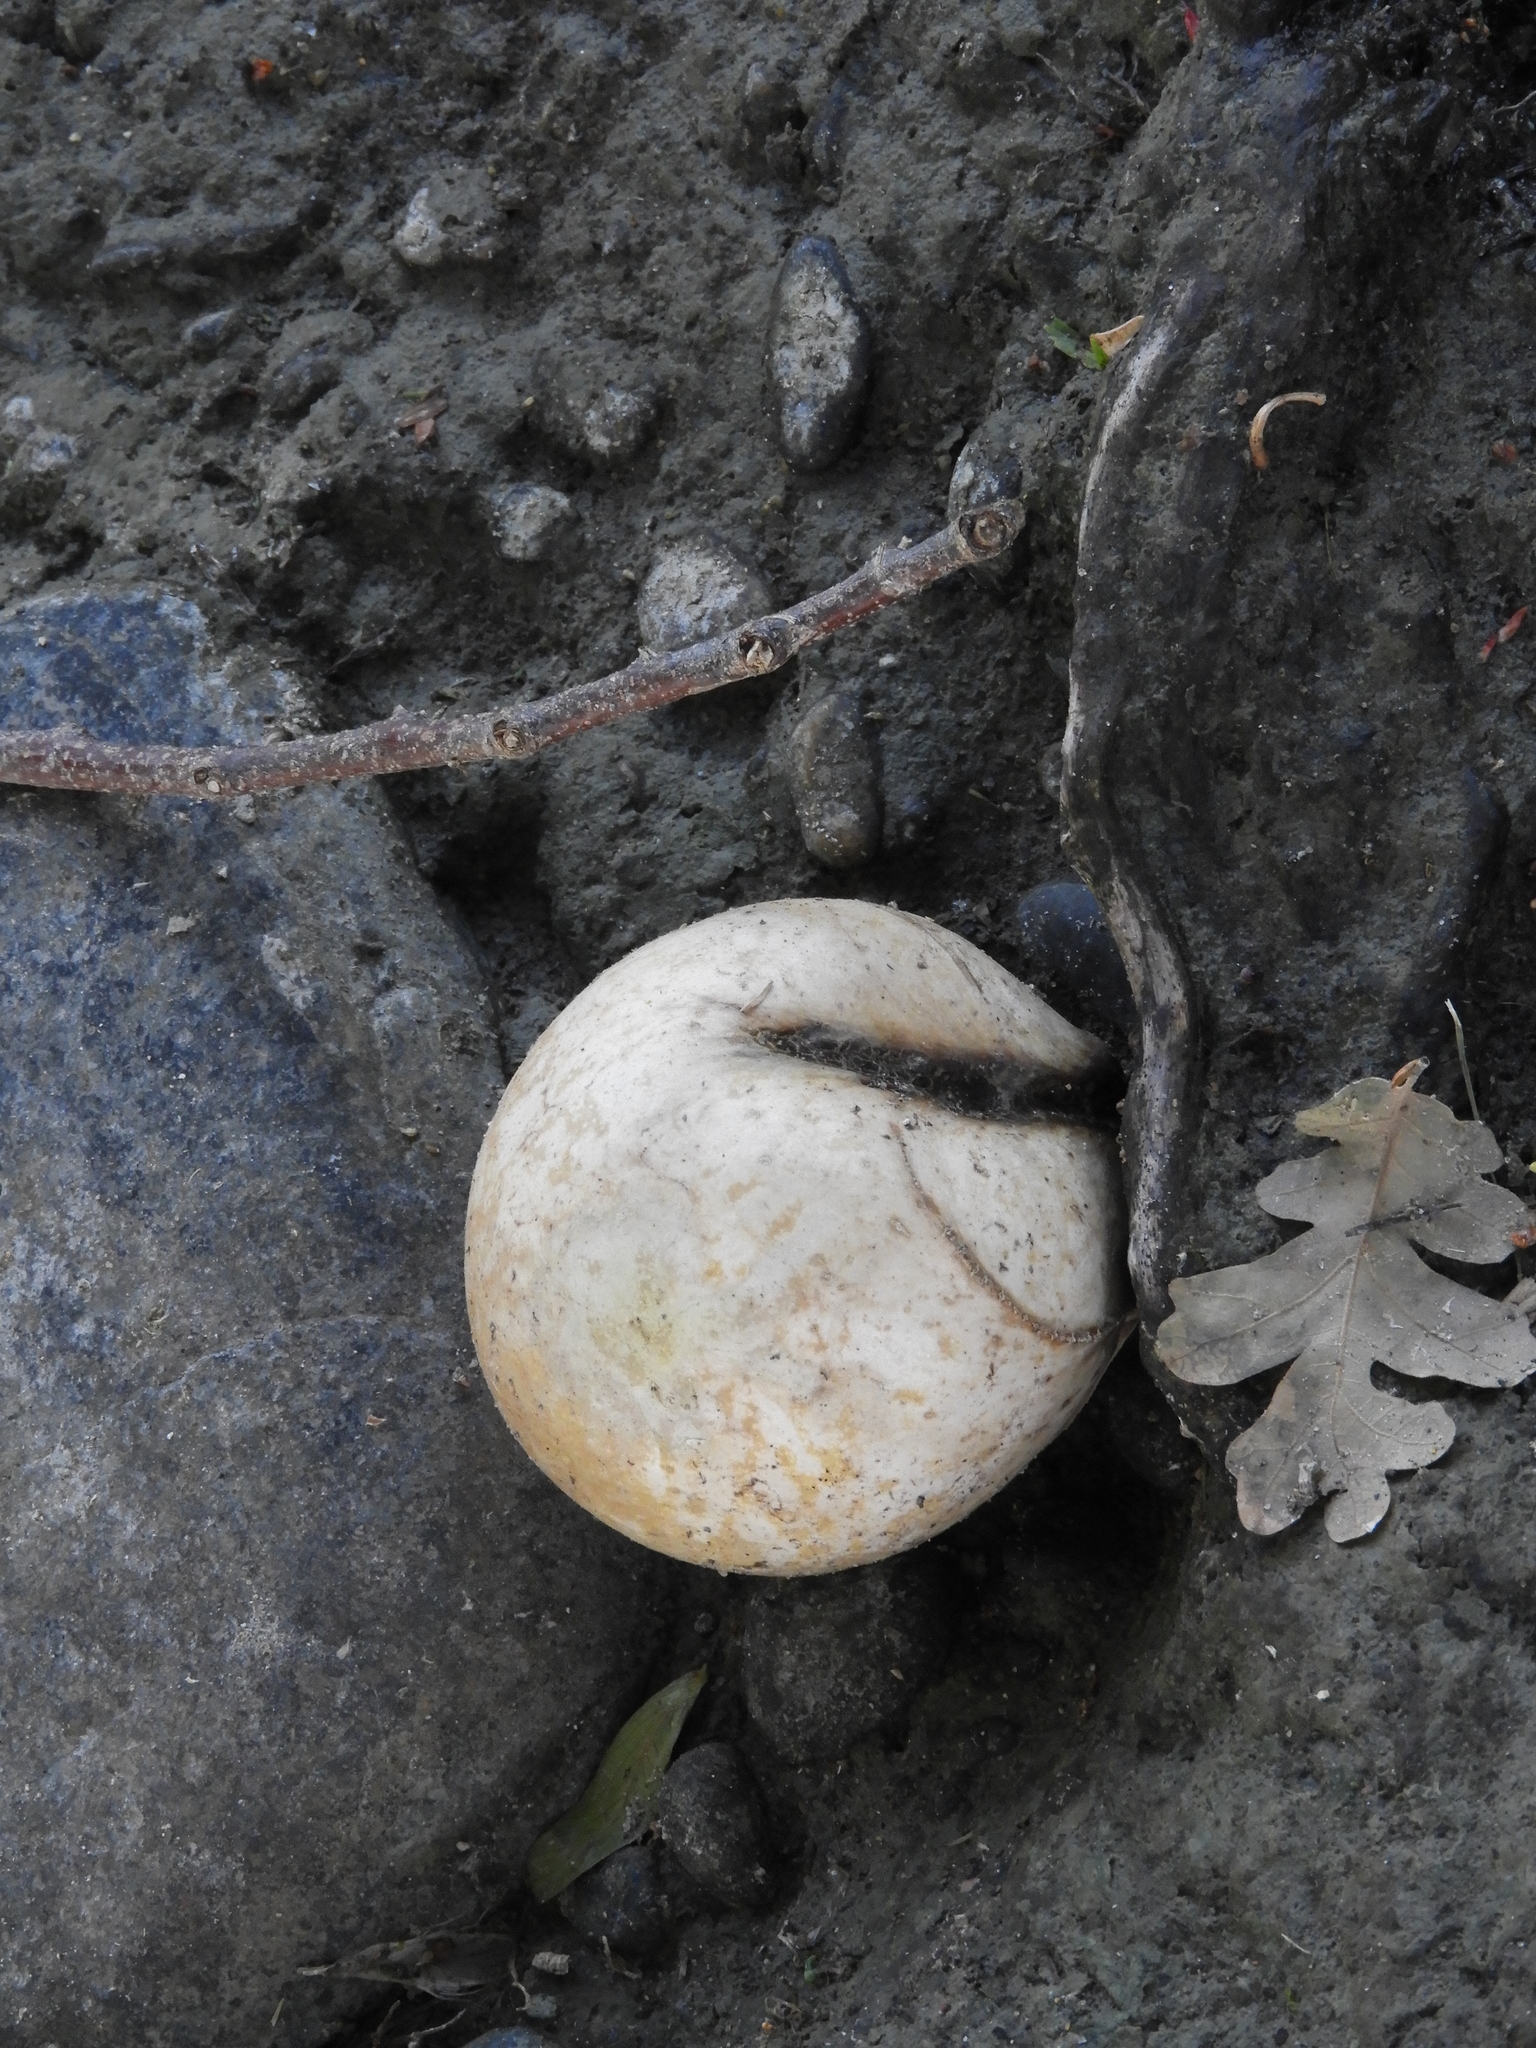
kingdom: Animalia
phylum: Arthropoda
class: Insecta
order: Hymenoptera
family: Cynipidae
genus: Andricus
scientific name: Andricus quercuscalifornicus
